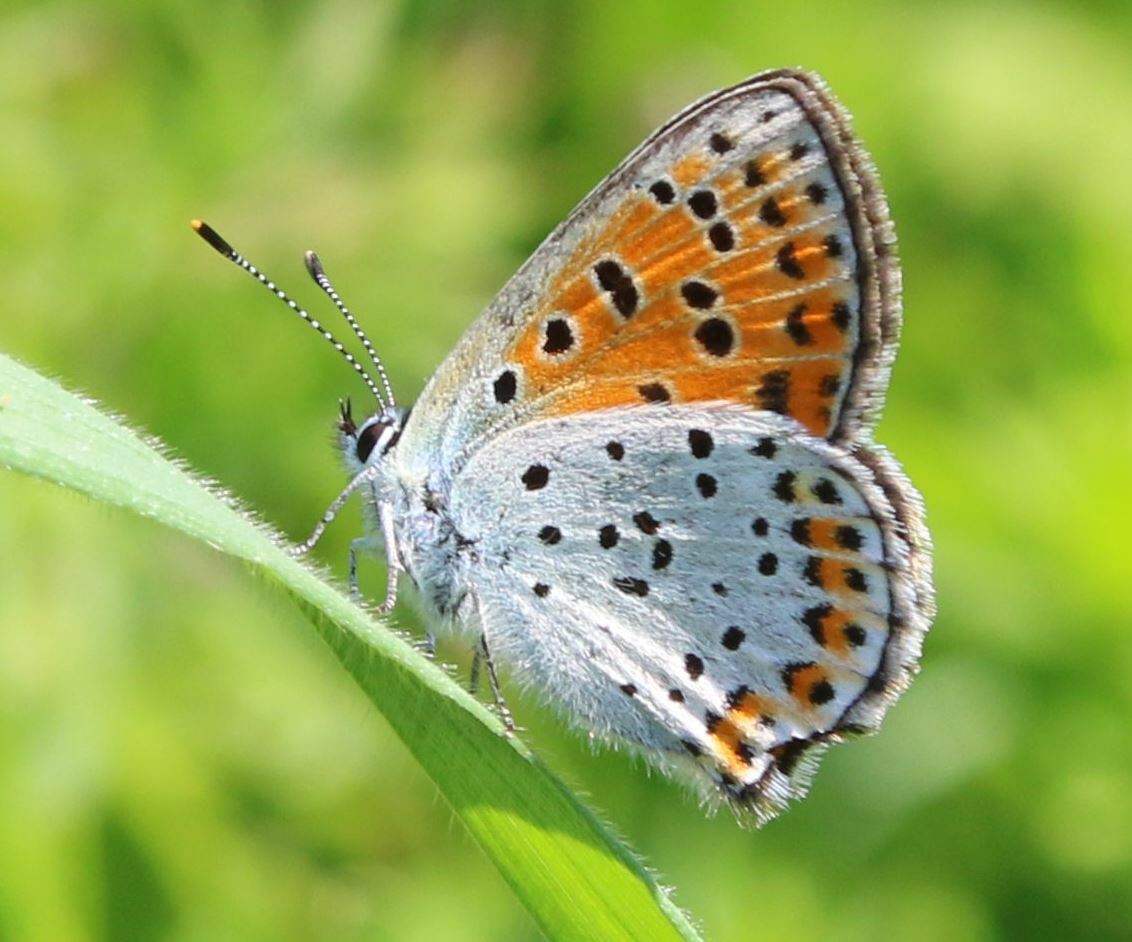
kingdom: Animalia
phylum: Arthropoda
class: Insecta
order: Lepidoptera
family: Lycaenidae
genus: Loweia
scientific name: Loweia tityrus
